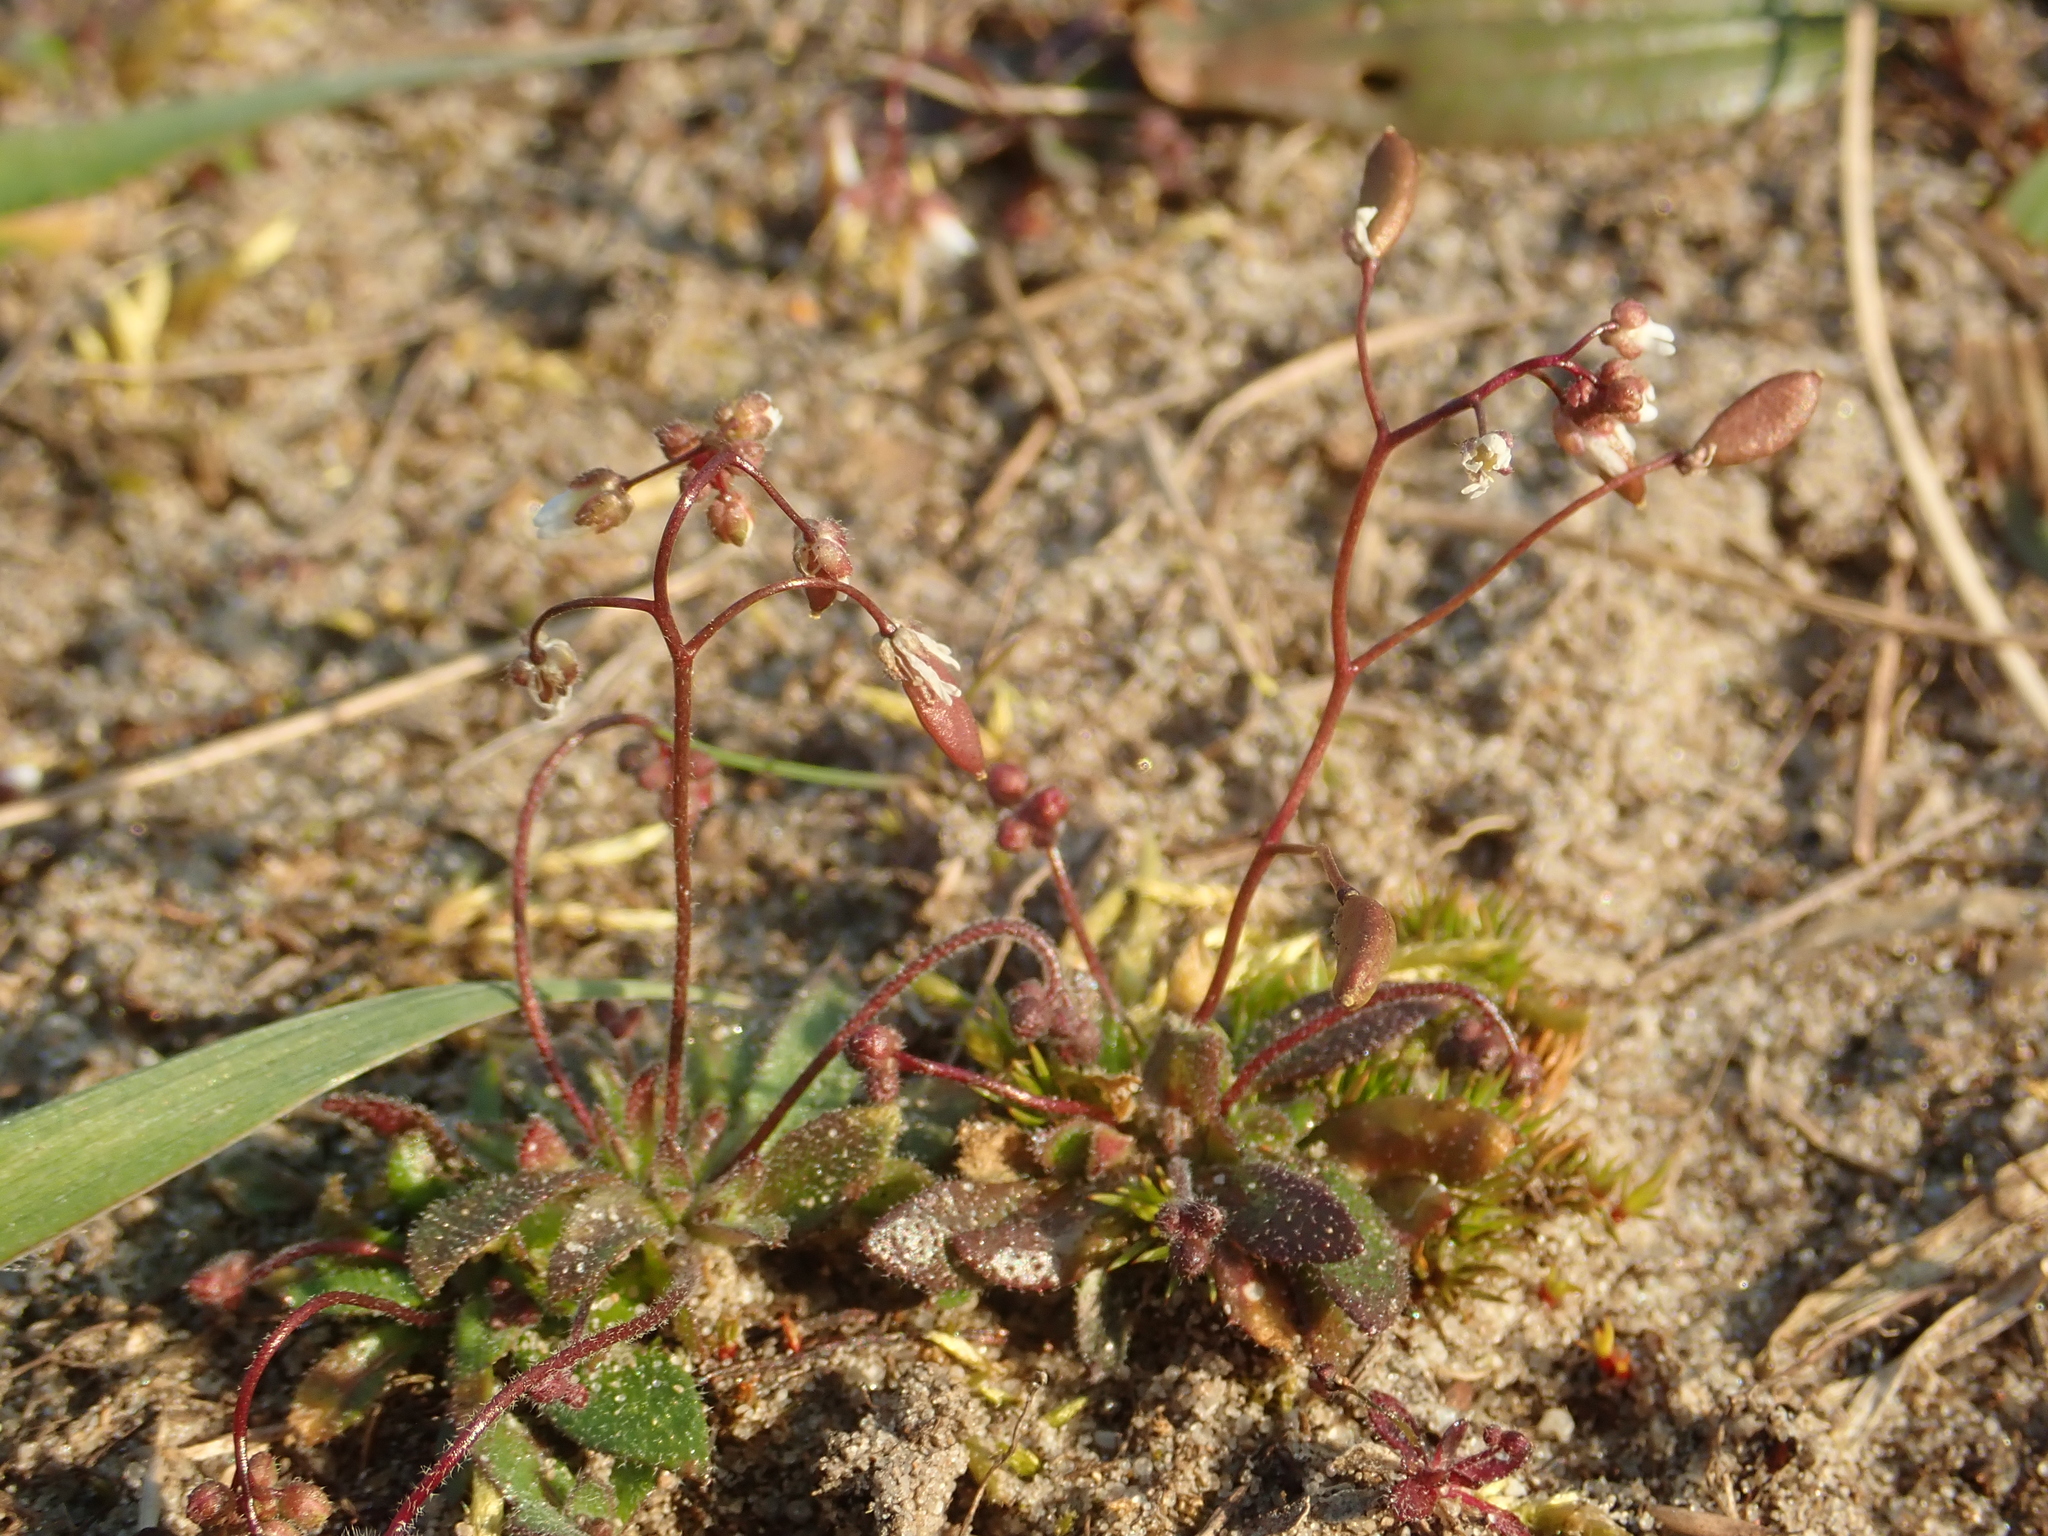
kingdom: Plantae
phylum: Tracheophyta
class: Magnoliopsida
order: Brassicales
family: Brassicaceae
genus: Draba
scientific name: Draba verna
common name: Spring draba
